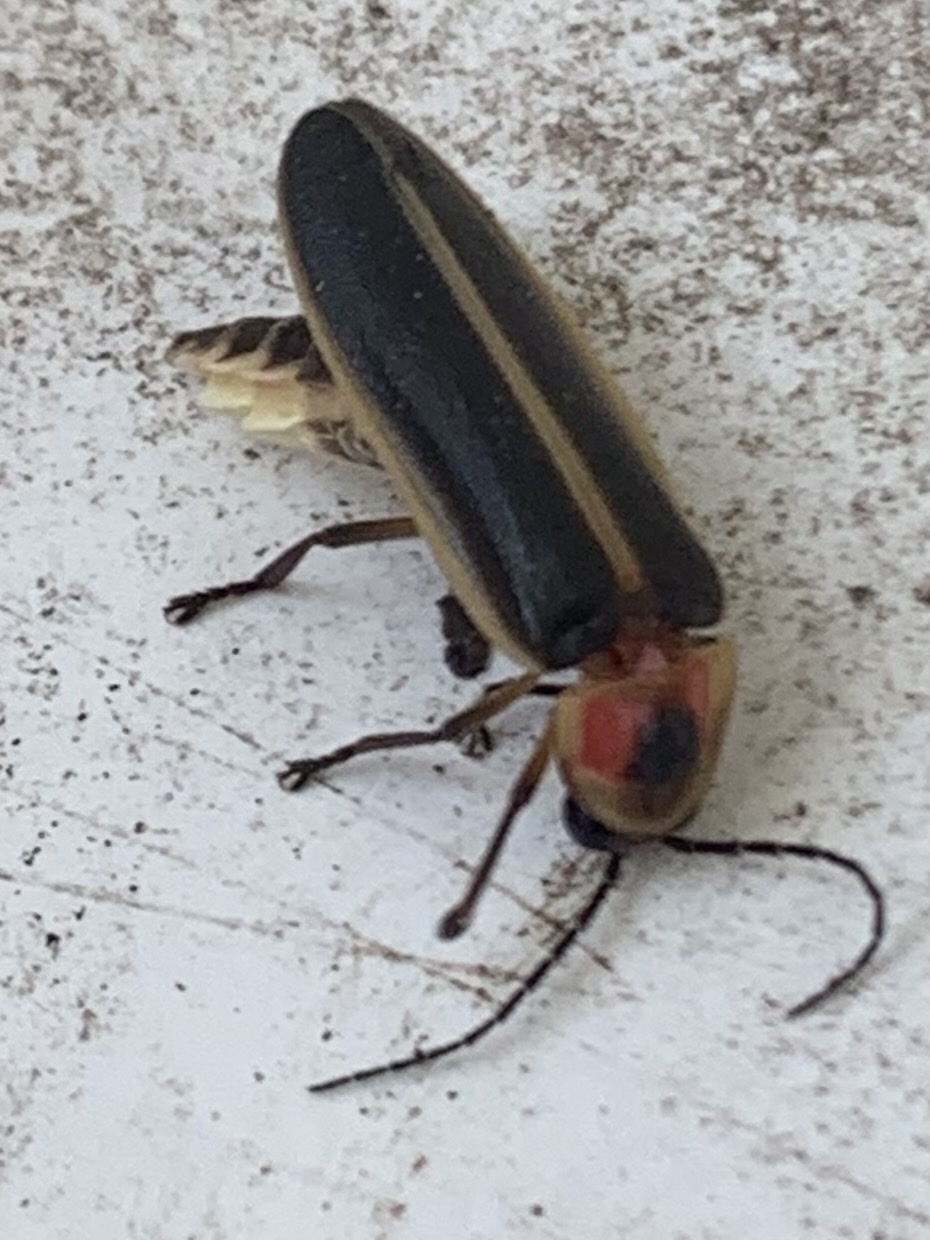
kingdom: Animalia
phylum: Arthropoda
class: Insecta
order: Coleoptera
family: Lampyridae
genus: Photinus
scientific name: Photinus pyralis
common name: Big dipper firefly
